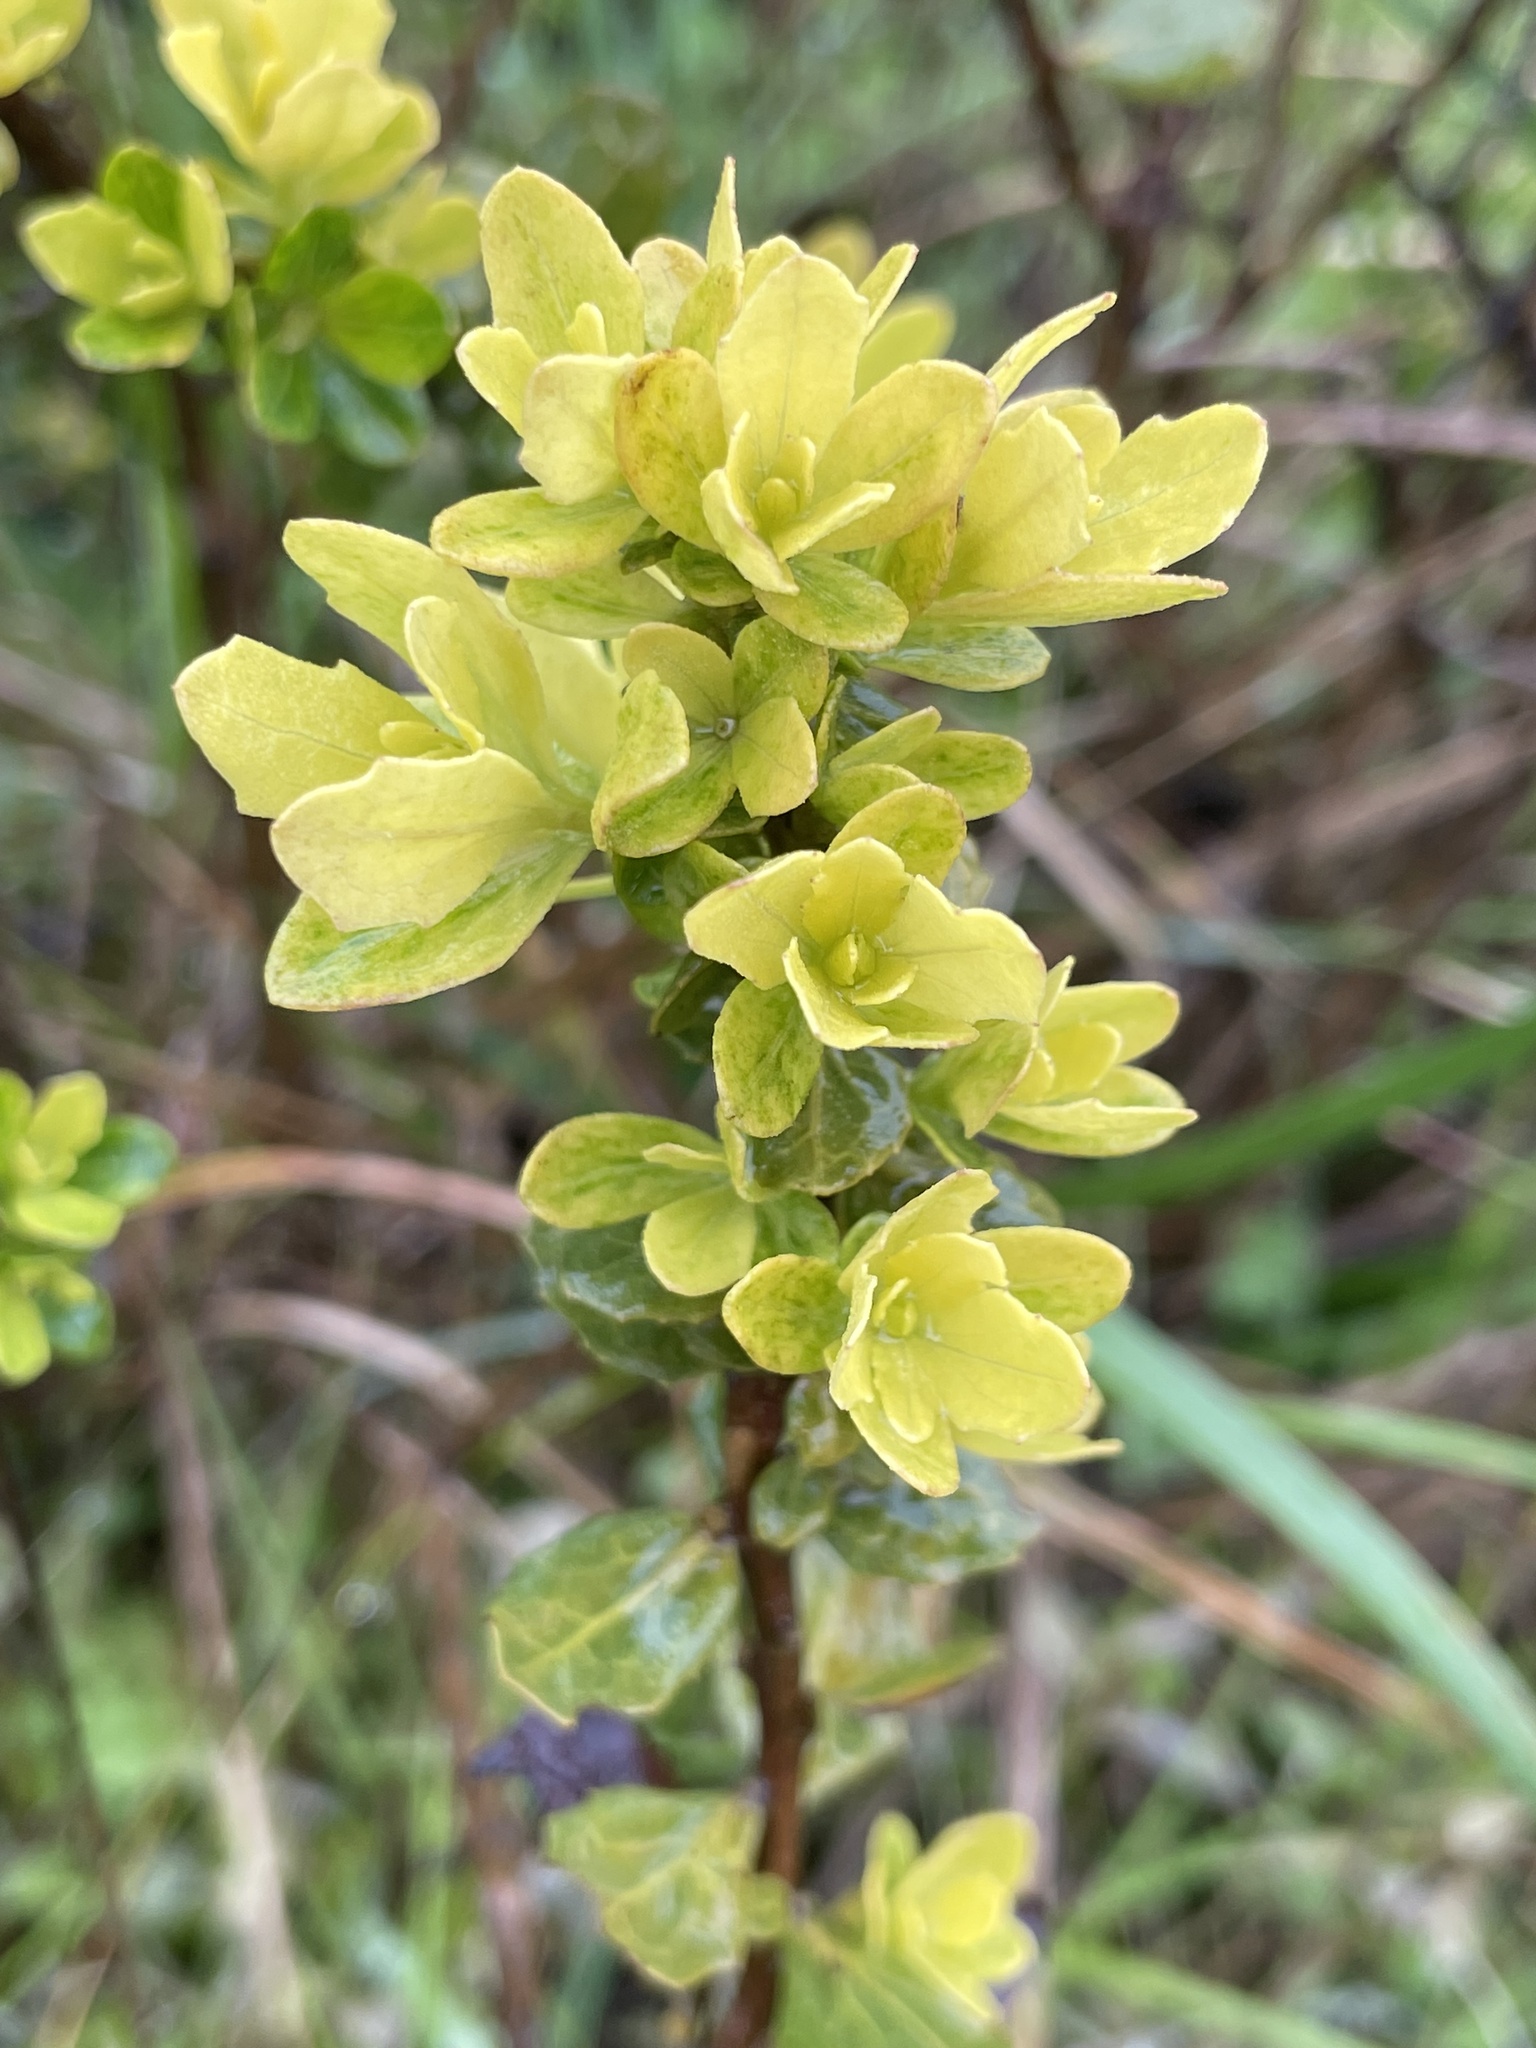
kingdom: Plantae
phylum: Tracheophyta
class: Magnoliopsida
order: Asterales
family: Asteraceae
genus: Baccharis
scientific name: Baccharis pilularis
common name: Coyotebrush
